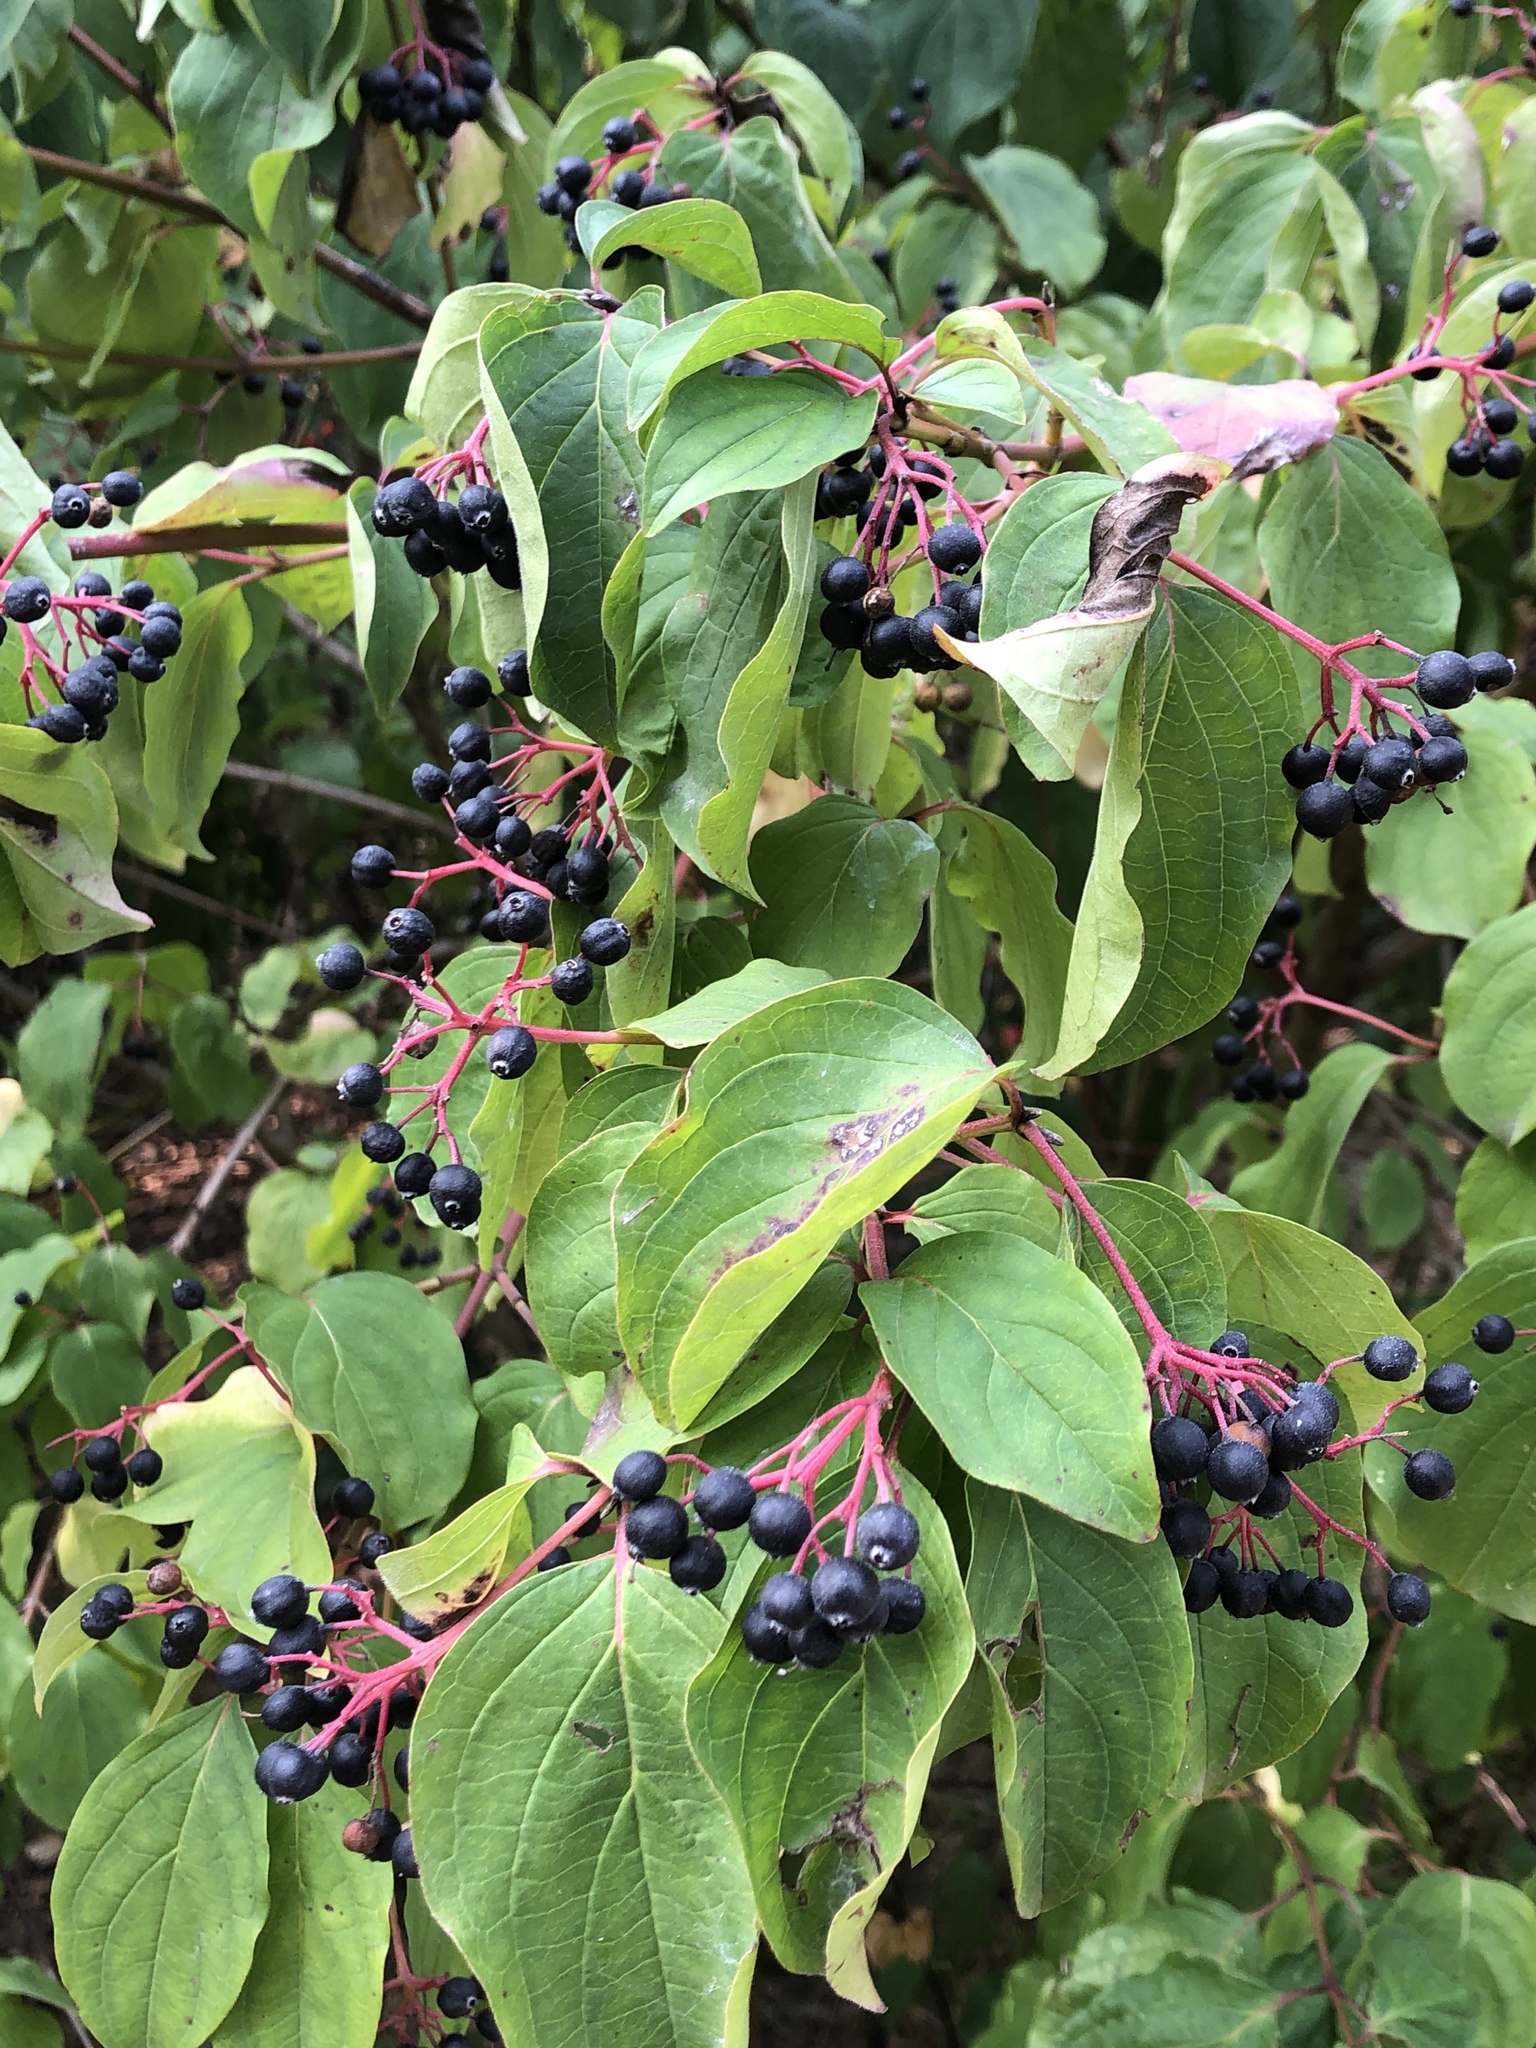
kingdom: Plantae
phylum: Tracheophyta
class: Magnoliopsida
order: Cornales
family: Cornaceae
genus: Cornus
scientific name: Cornus sanguinea
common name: Dogwood
